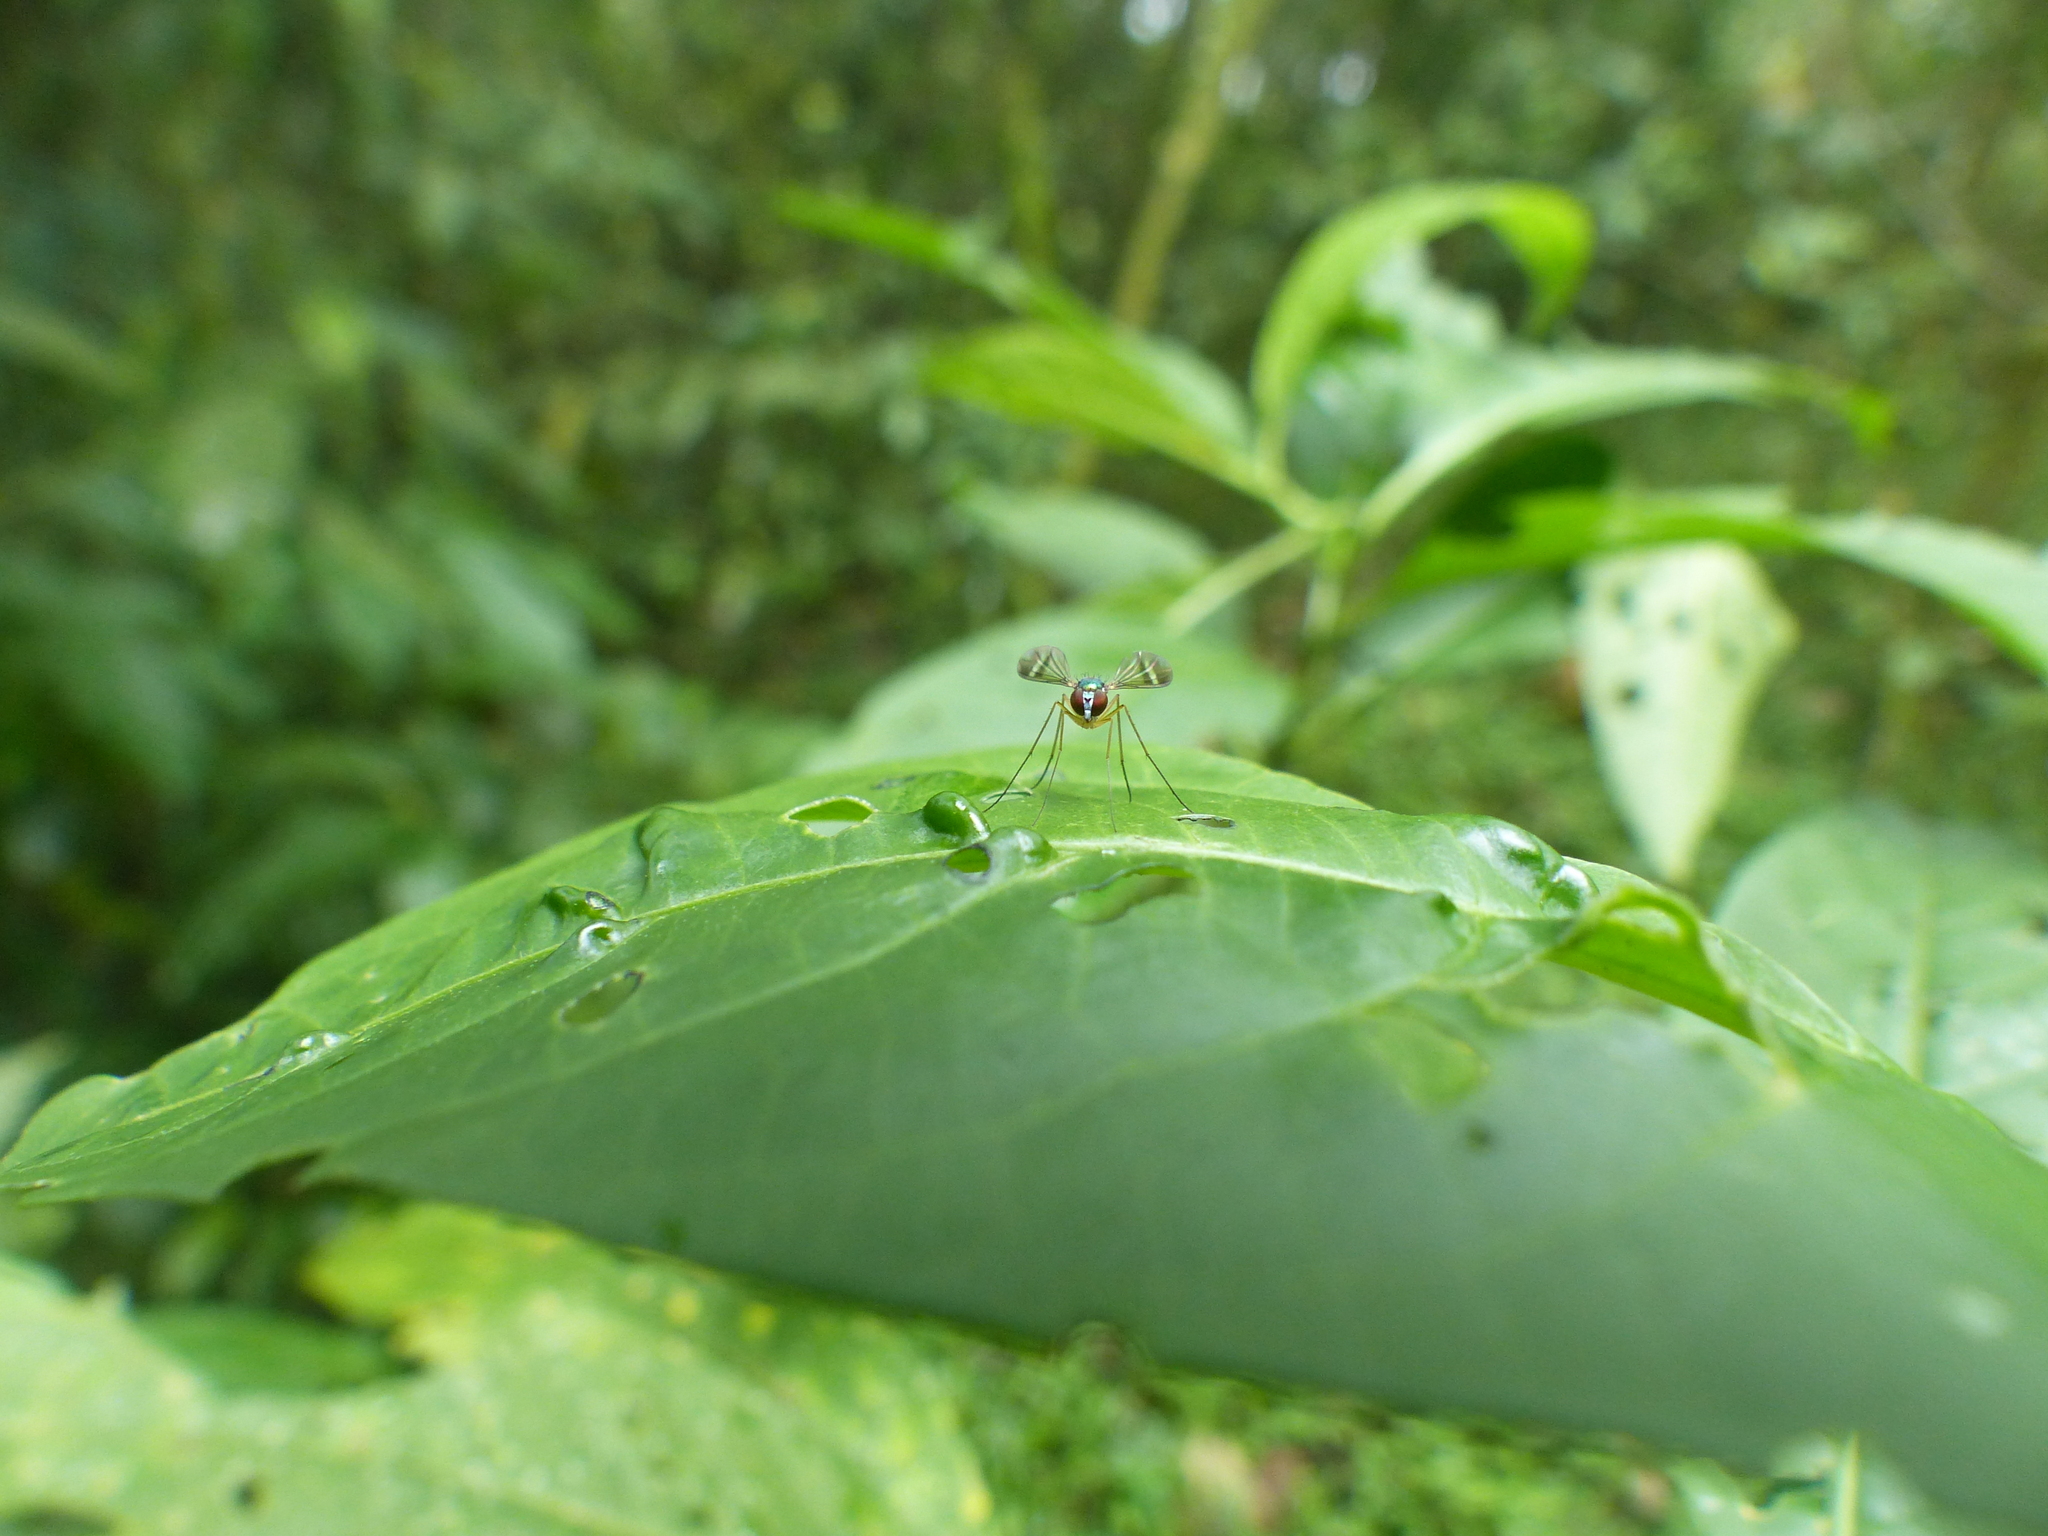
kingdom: Animalia
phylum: Arthropoda
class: Insecta
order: Diptera
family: Dolichopodidae
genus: Condylostylus
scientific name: Condylostylus flavicoxa
